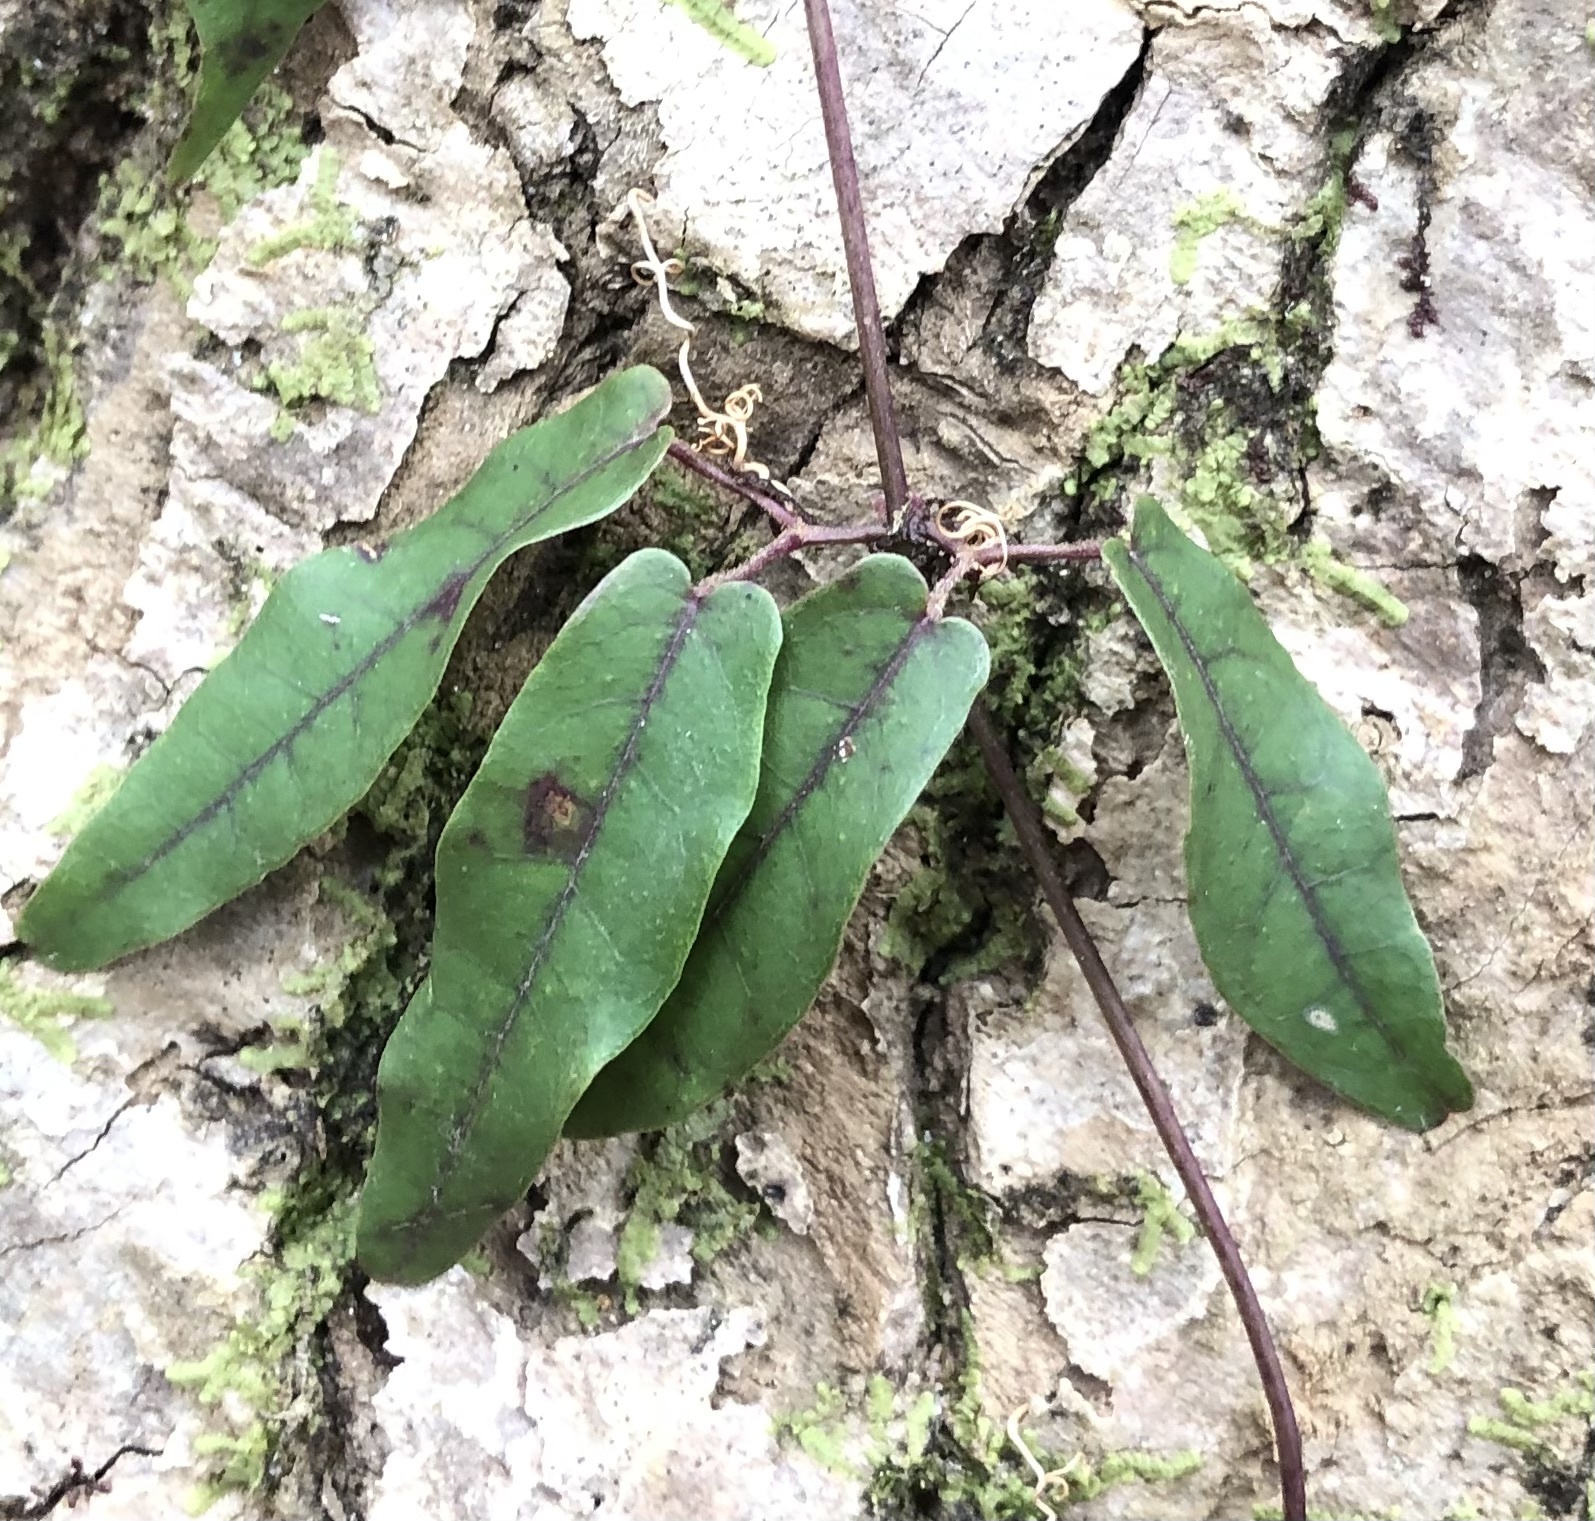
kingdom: Plantae
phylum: Tracheophyta
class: Magnoliopsida
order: Lamiales
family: Bignoniaceae
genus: Bignonia
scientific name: Bignonia capreolata
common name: Crossvine
